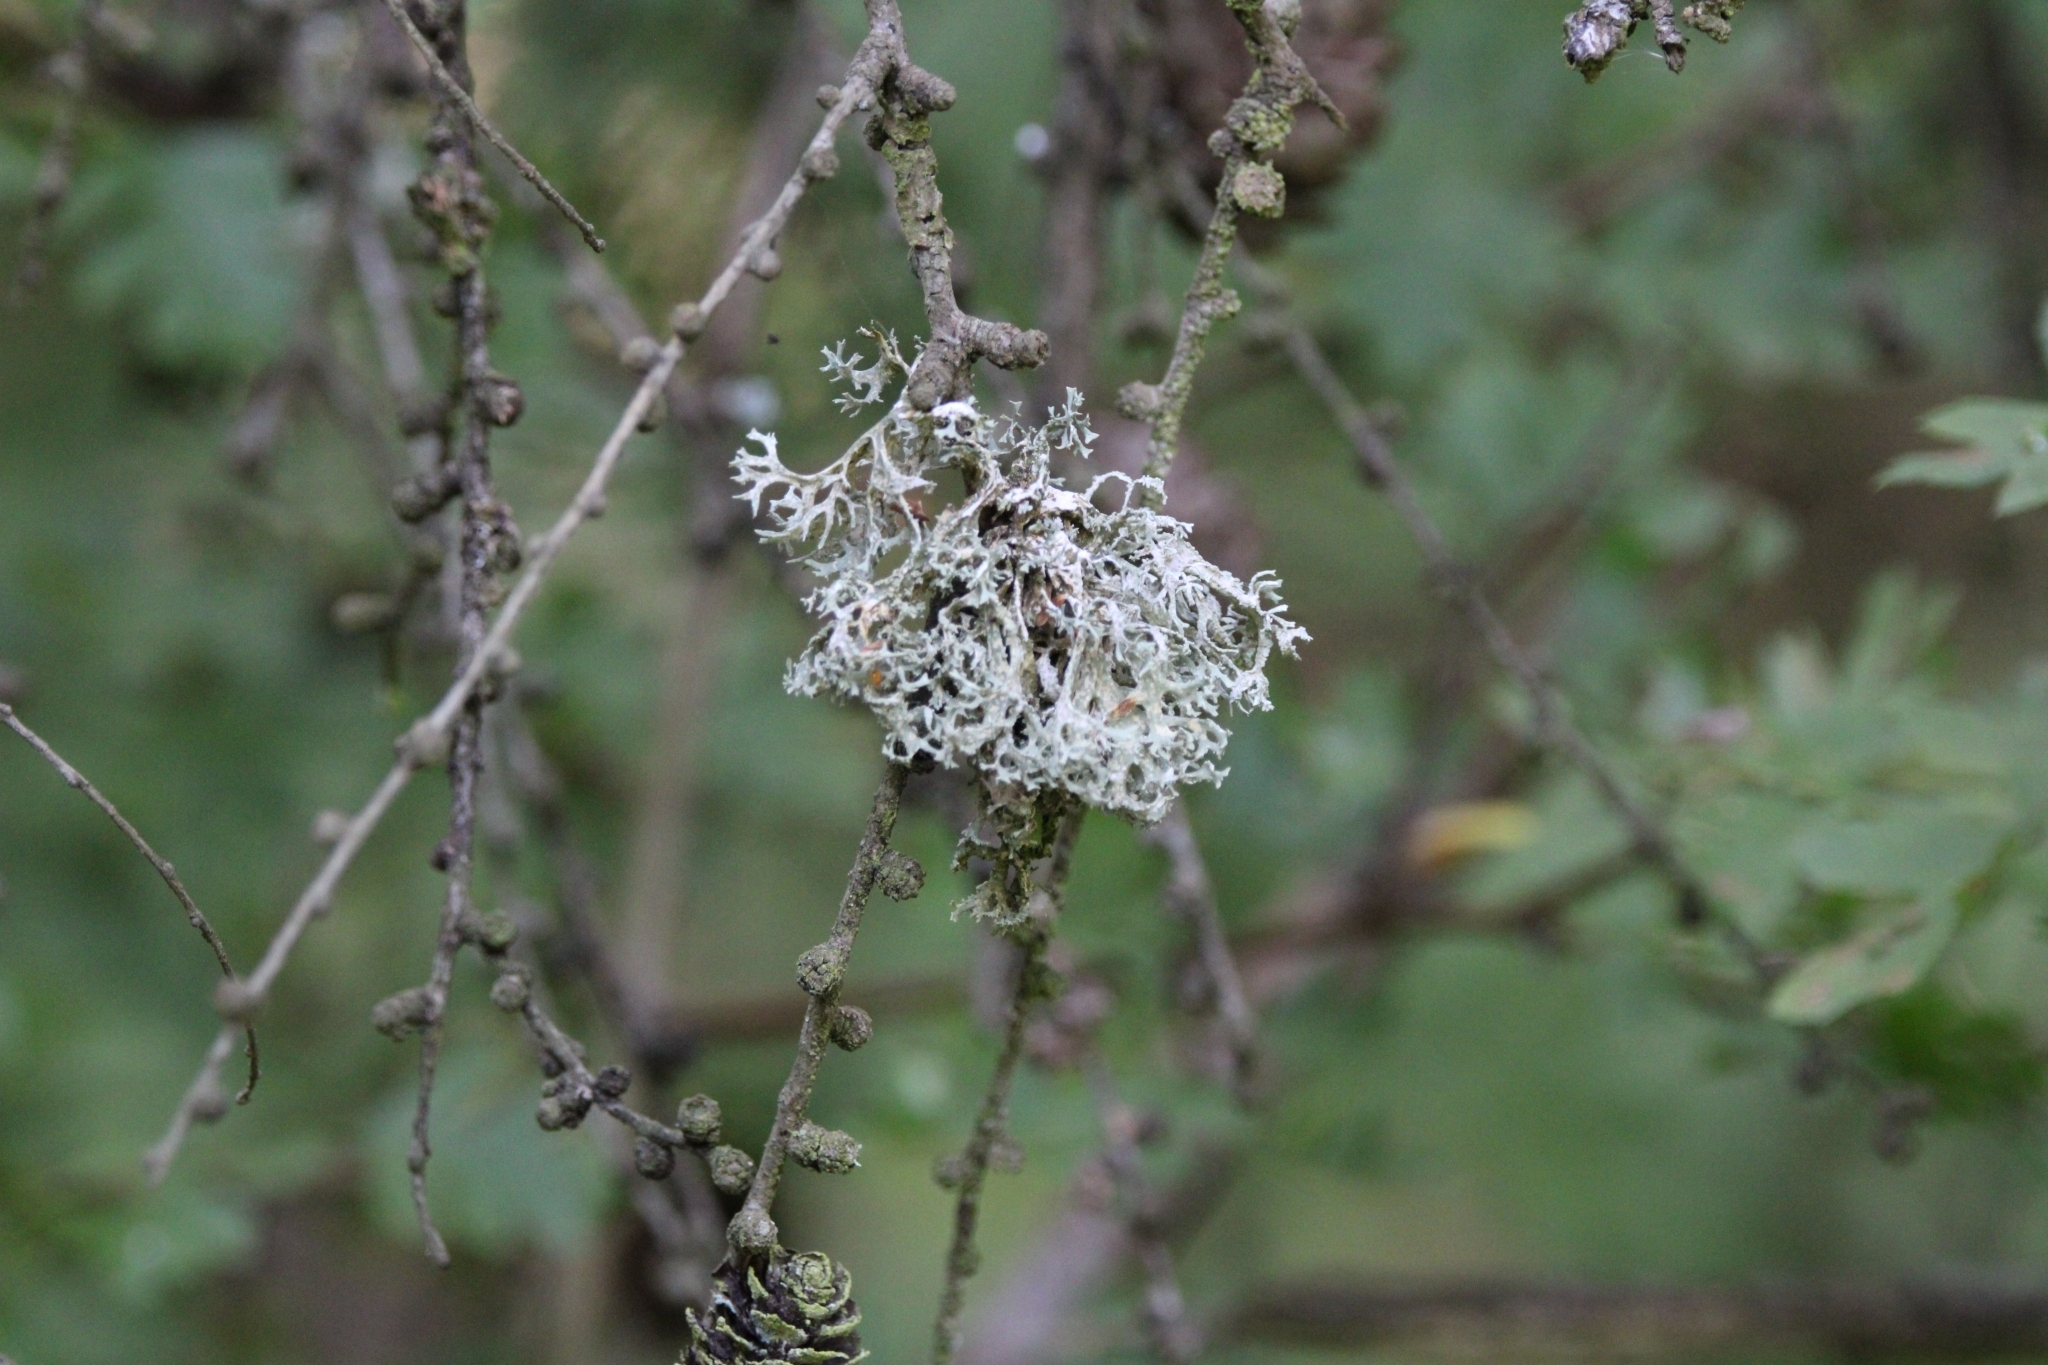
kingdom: Fungi
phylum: Ascomycota
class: Lecanoromycetes
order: Lecanorales
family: Parmeliaceae
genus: Evernia
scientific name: Evernia prunastri
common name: Oak moss
